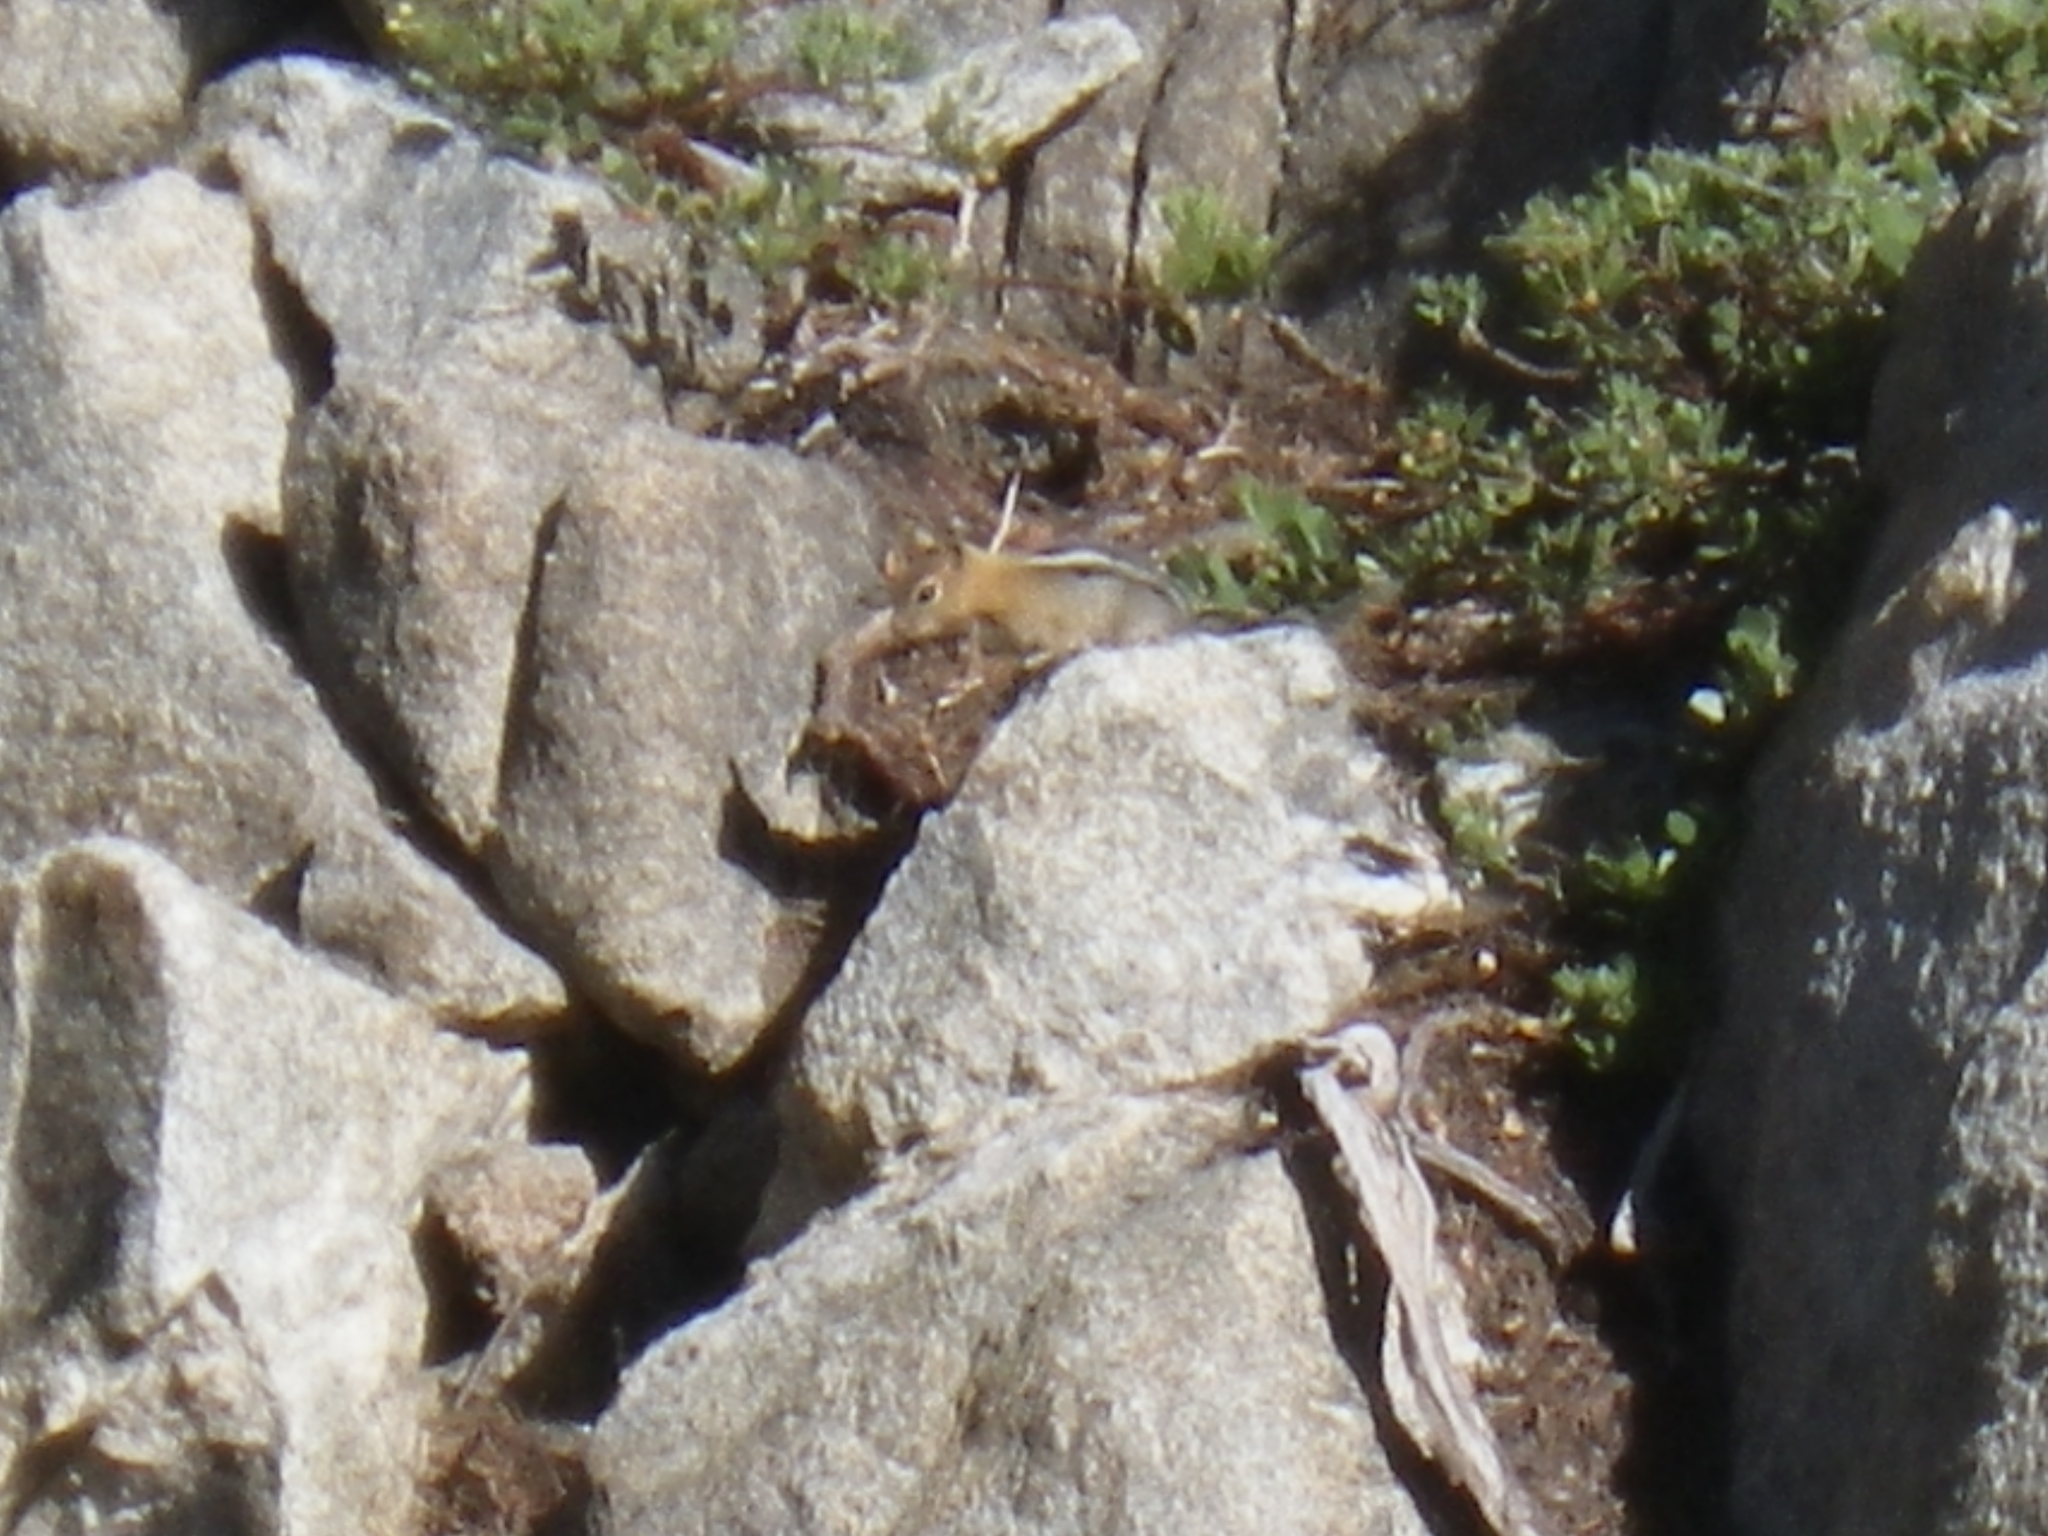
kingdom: Animalia
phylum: Chordata
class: Mammalia
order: Rodentia
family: Sciuridae
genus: Callospermophilus
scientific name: Callospermophilus lateralis
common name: Golden-mantled ground squirrel
